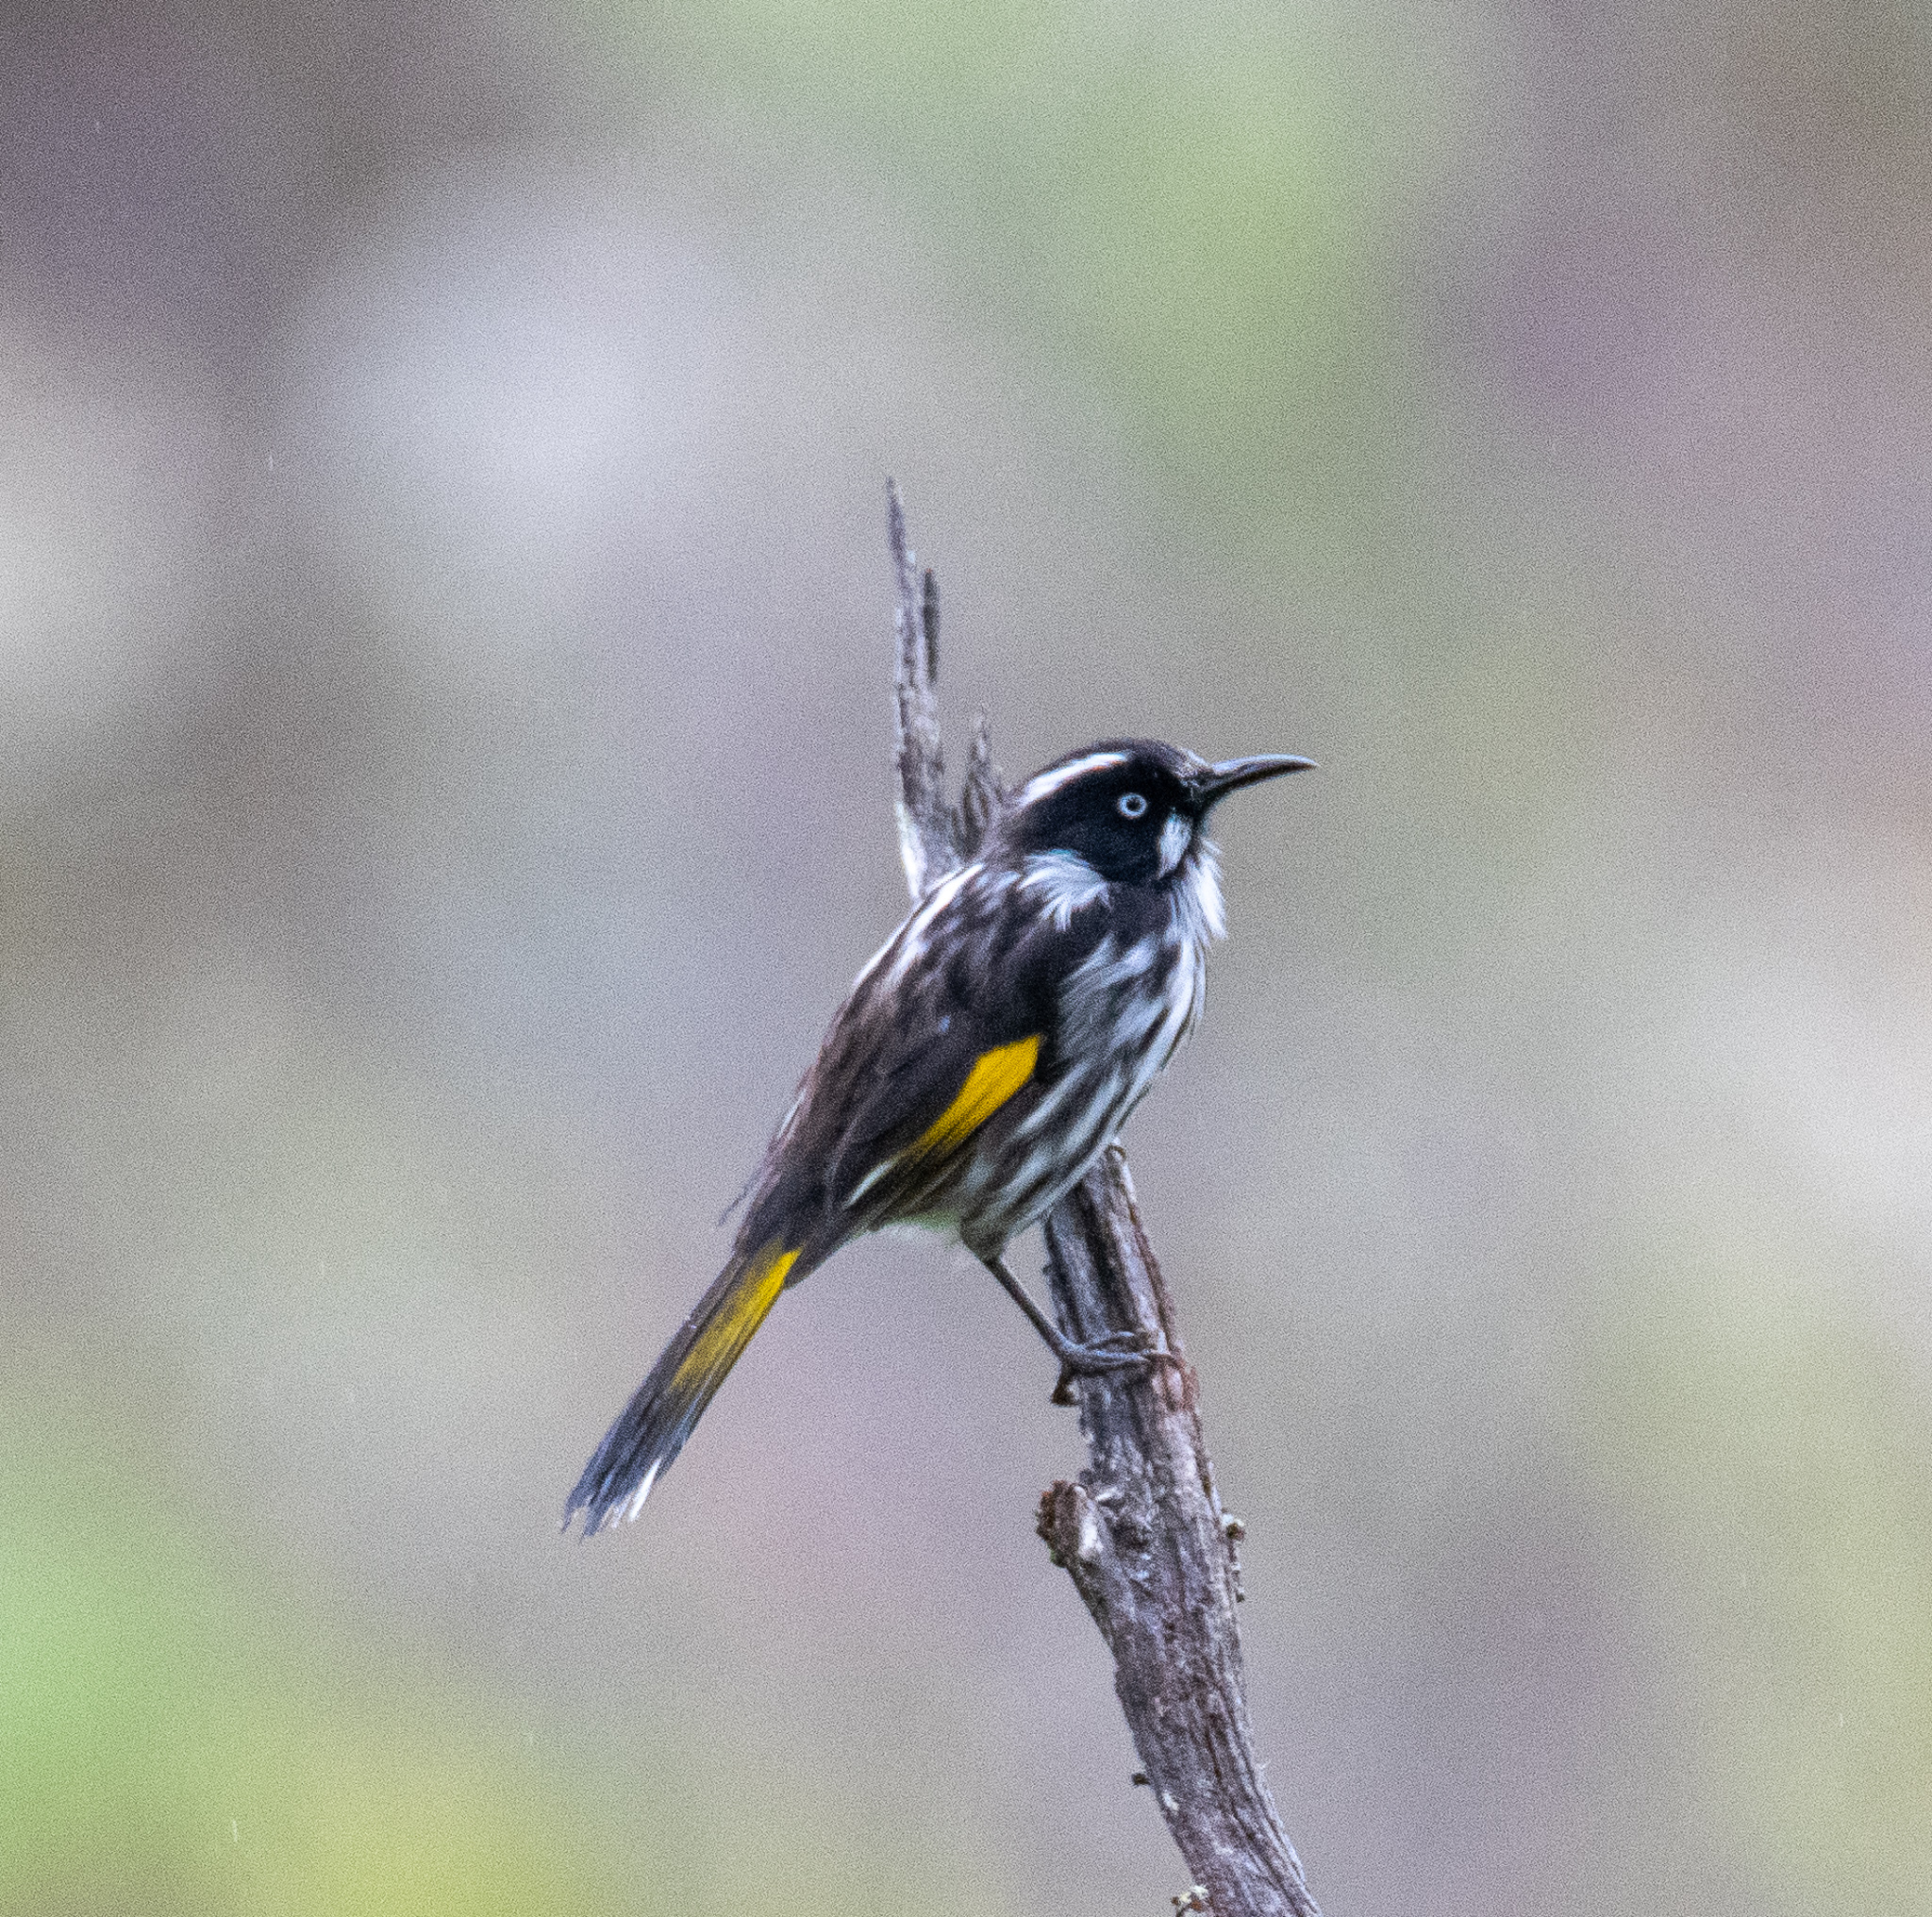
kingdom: Animalia
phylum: Chordata
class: Aves
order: Passeriformes
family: Meliphagidae
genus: Phylidonyris
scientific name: Phylidonyris novaehollandiae
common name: New holland honeyeater
